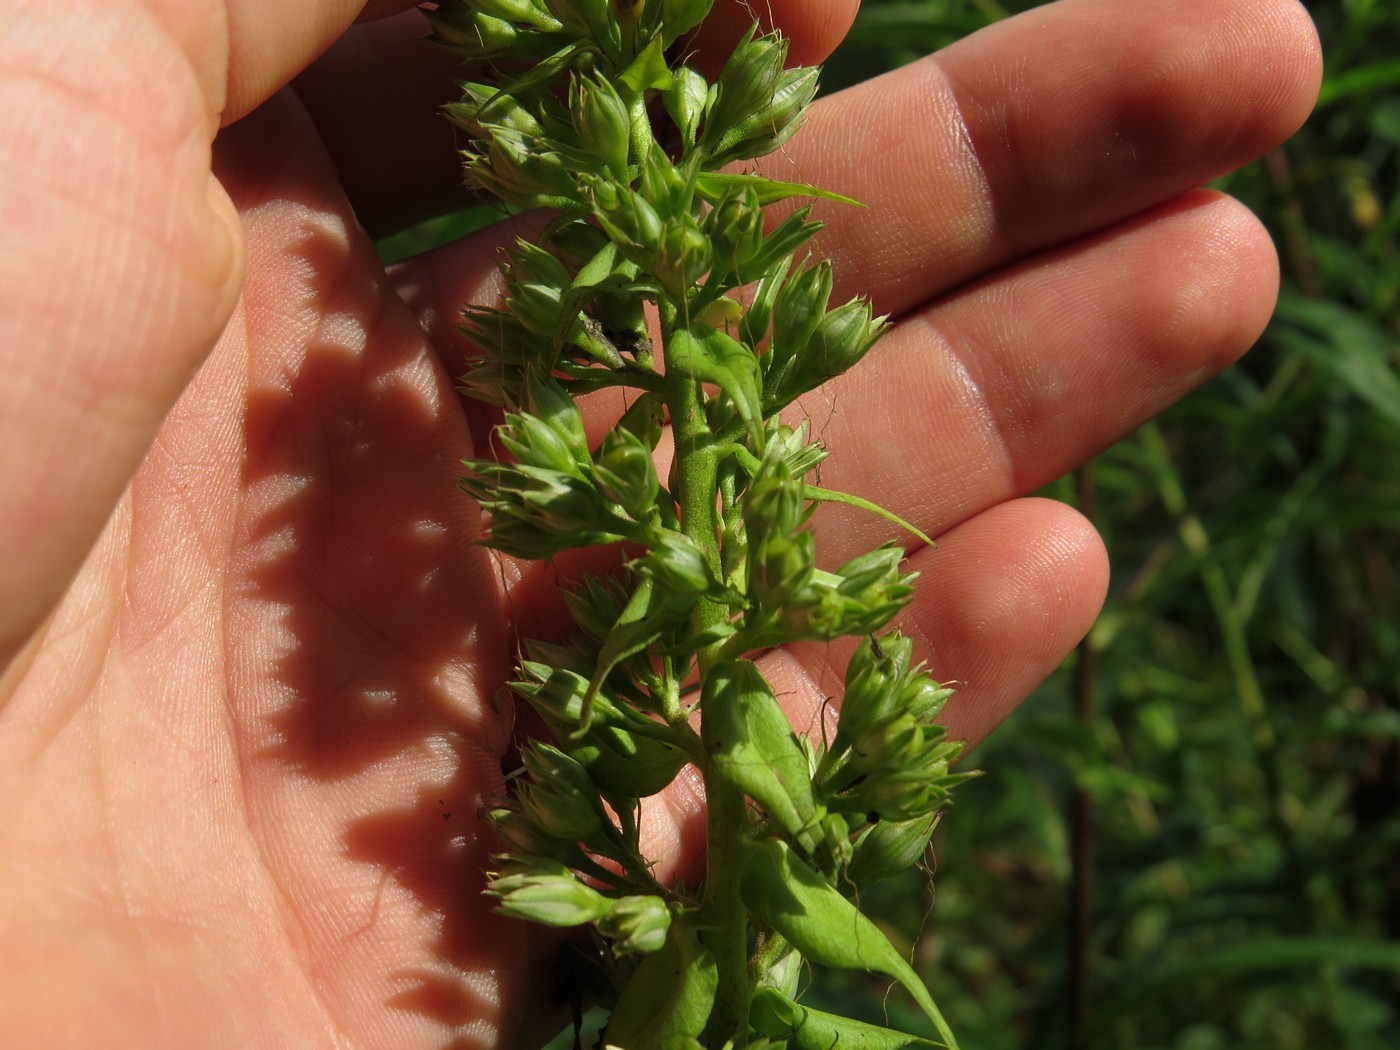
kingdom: Plantae
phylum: Tracheophyta
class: Magnoliopsida
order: Ericales
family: Polemoniaceae
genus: Phlox
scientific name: Phlox maculata
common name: Meadow phlox
